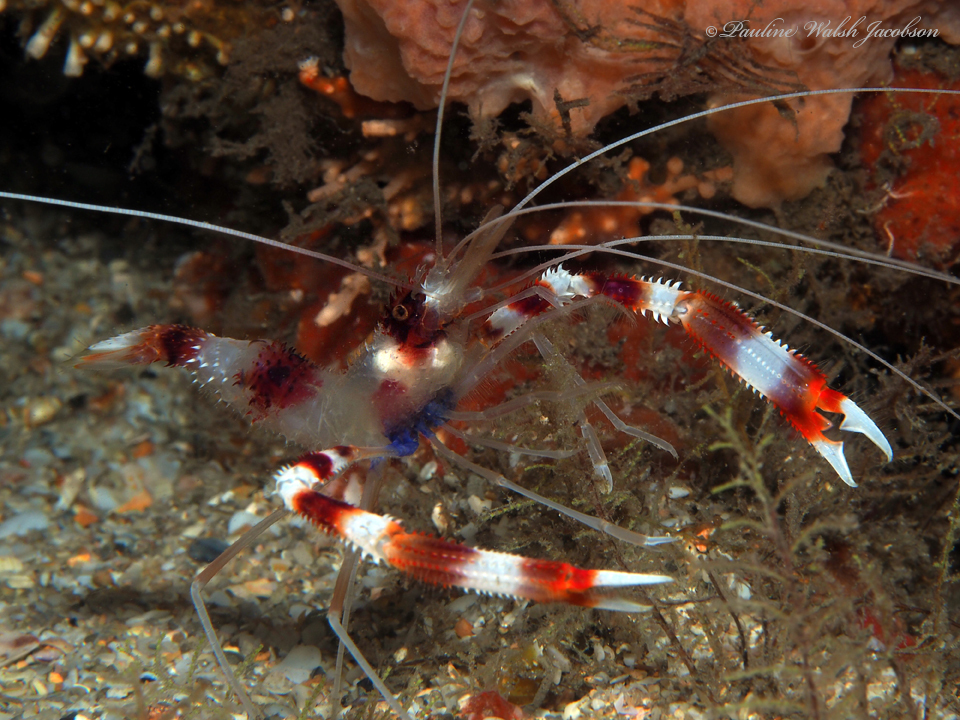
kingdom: Animalia
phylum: Arthropoda
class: Malacostraca
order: Decapoda
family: Stenopodidae
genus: Stenopus
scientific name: Stenopus hispidus
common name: Banded coral shrimp
